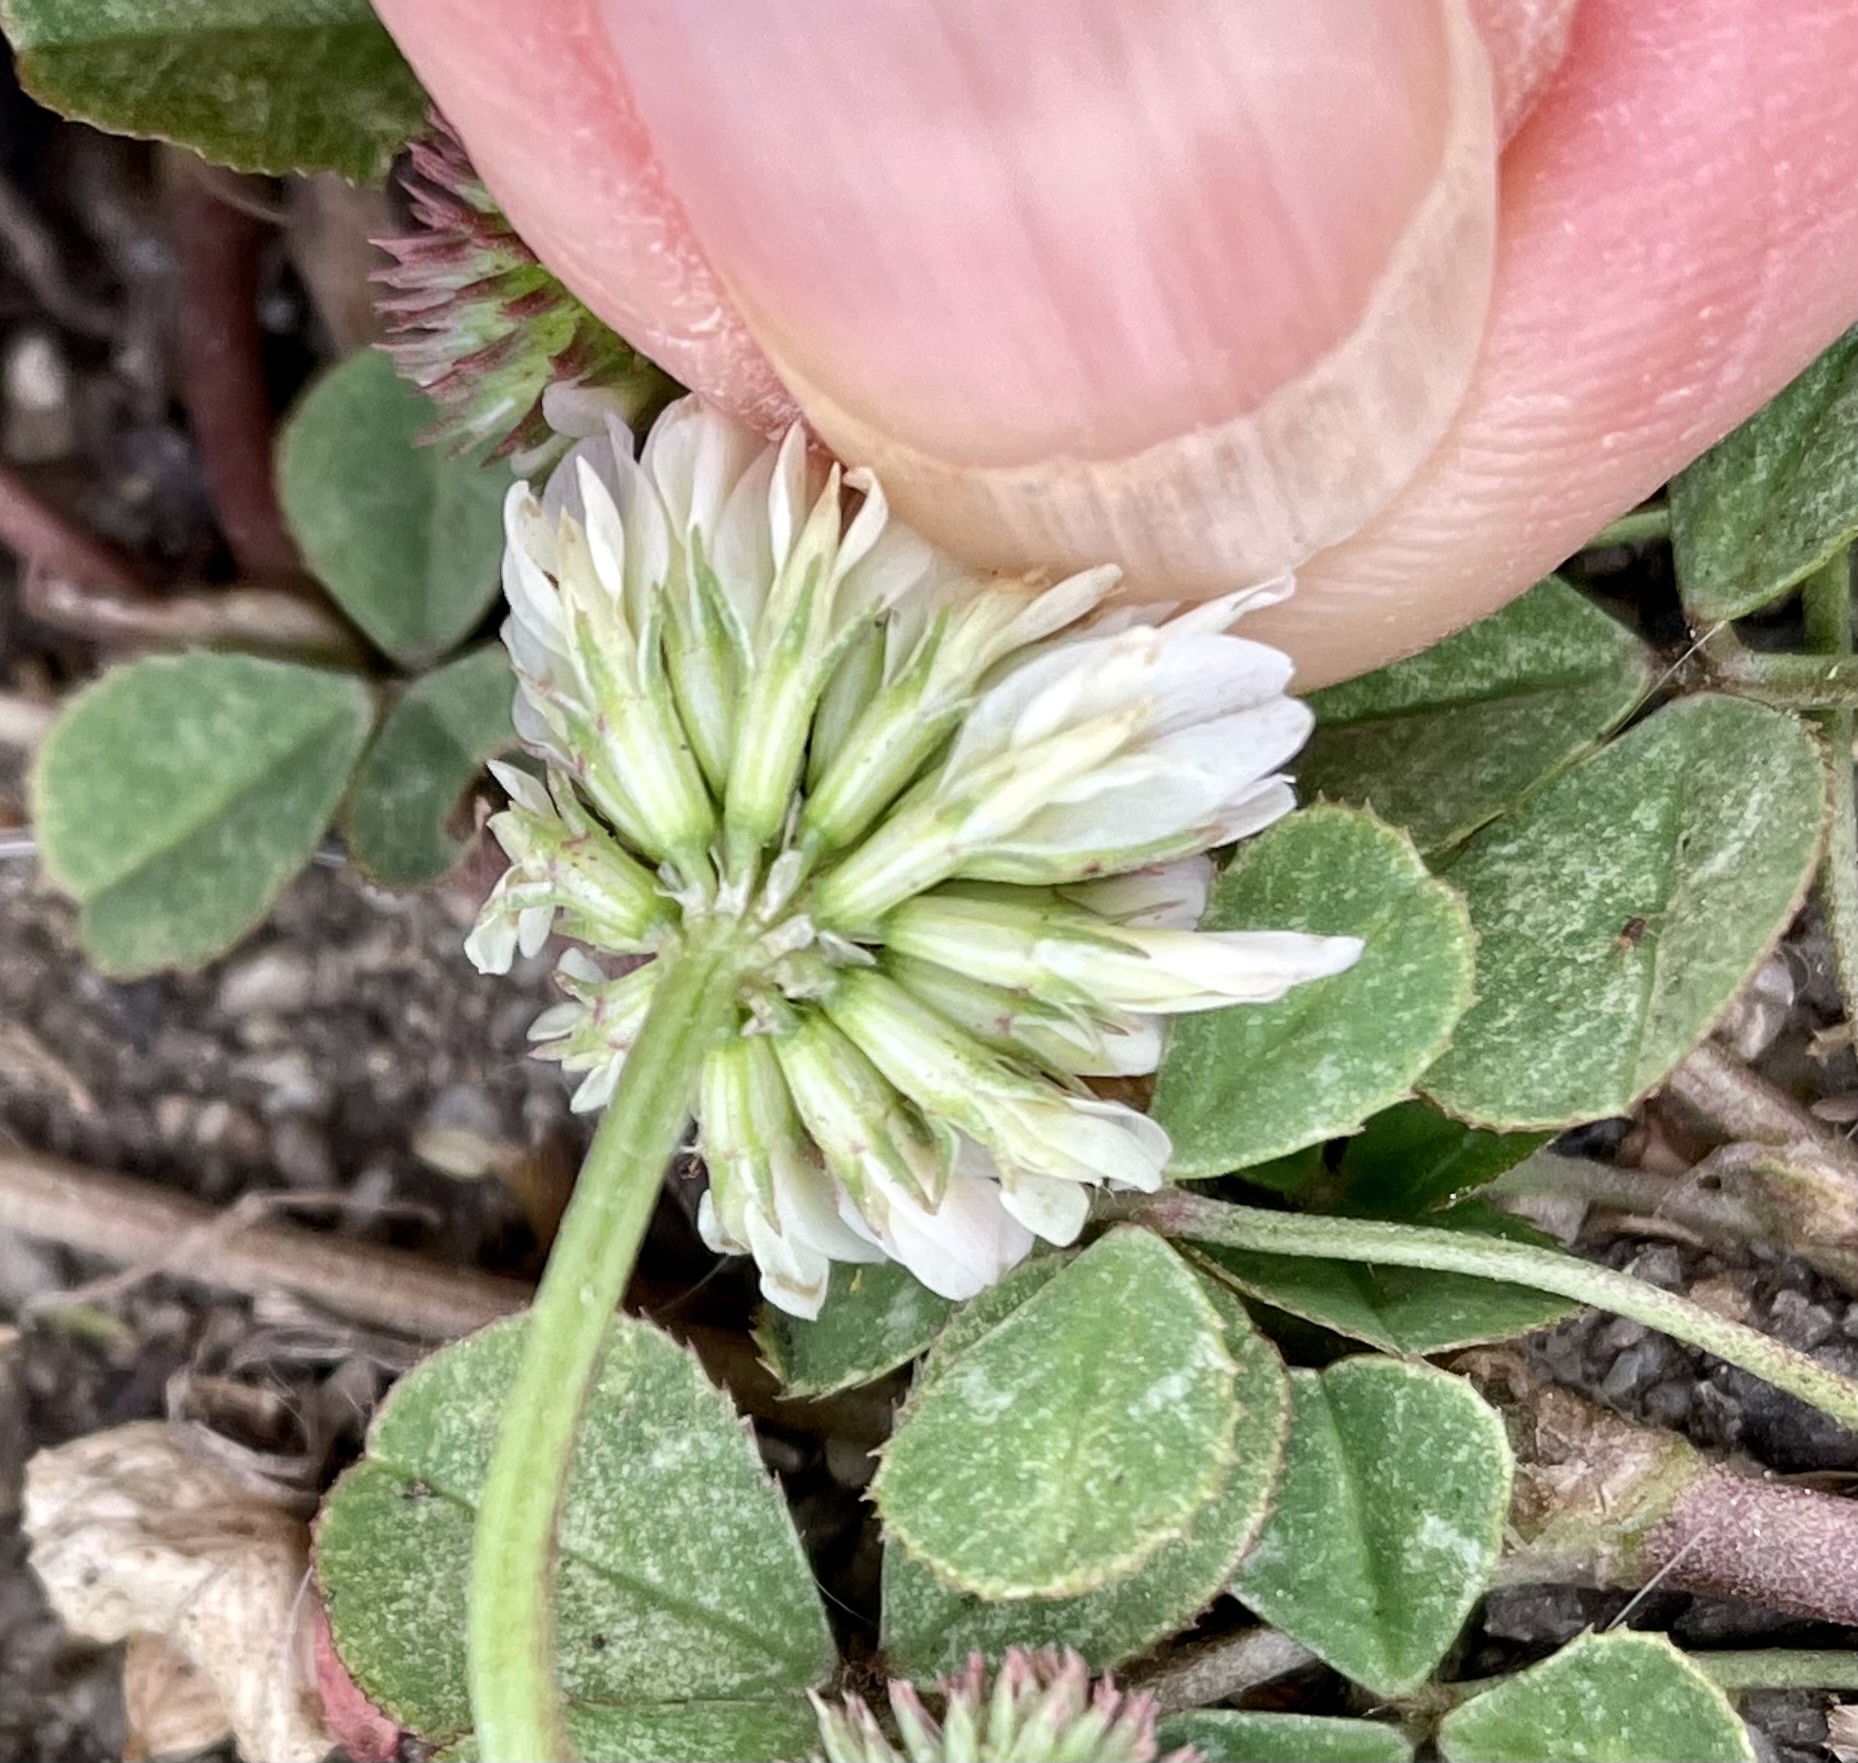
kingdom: Plantae
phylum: Tracheophyta
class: Magnoliopsida
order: Fabales
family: Fabaceae
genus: Trifolium
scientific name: Trifolium repens
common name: White clover
